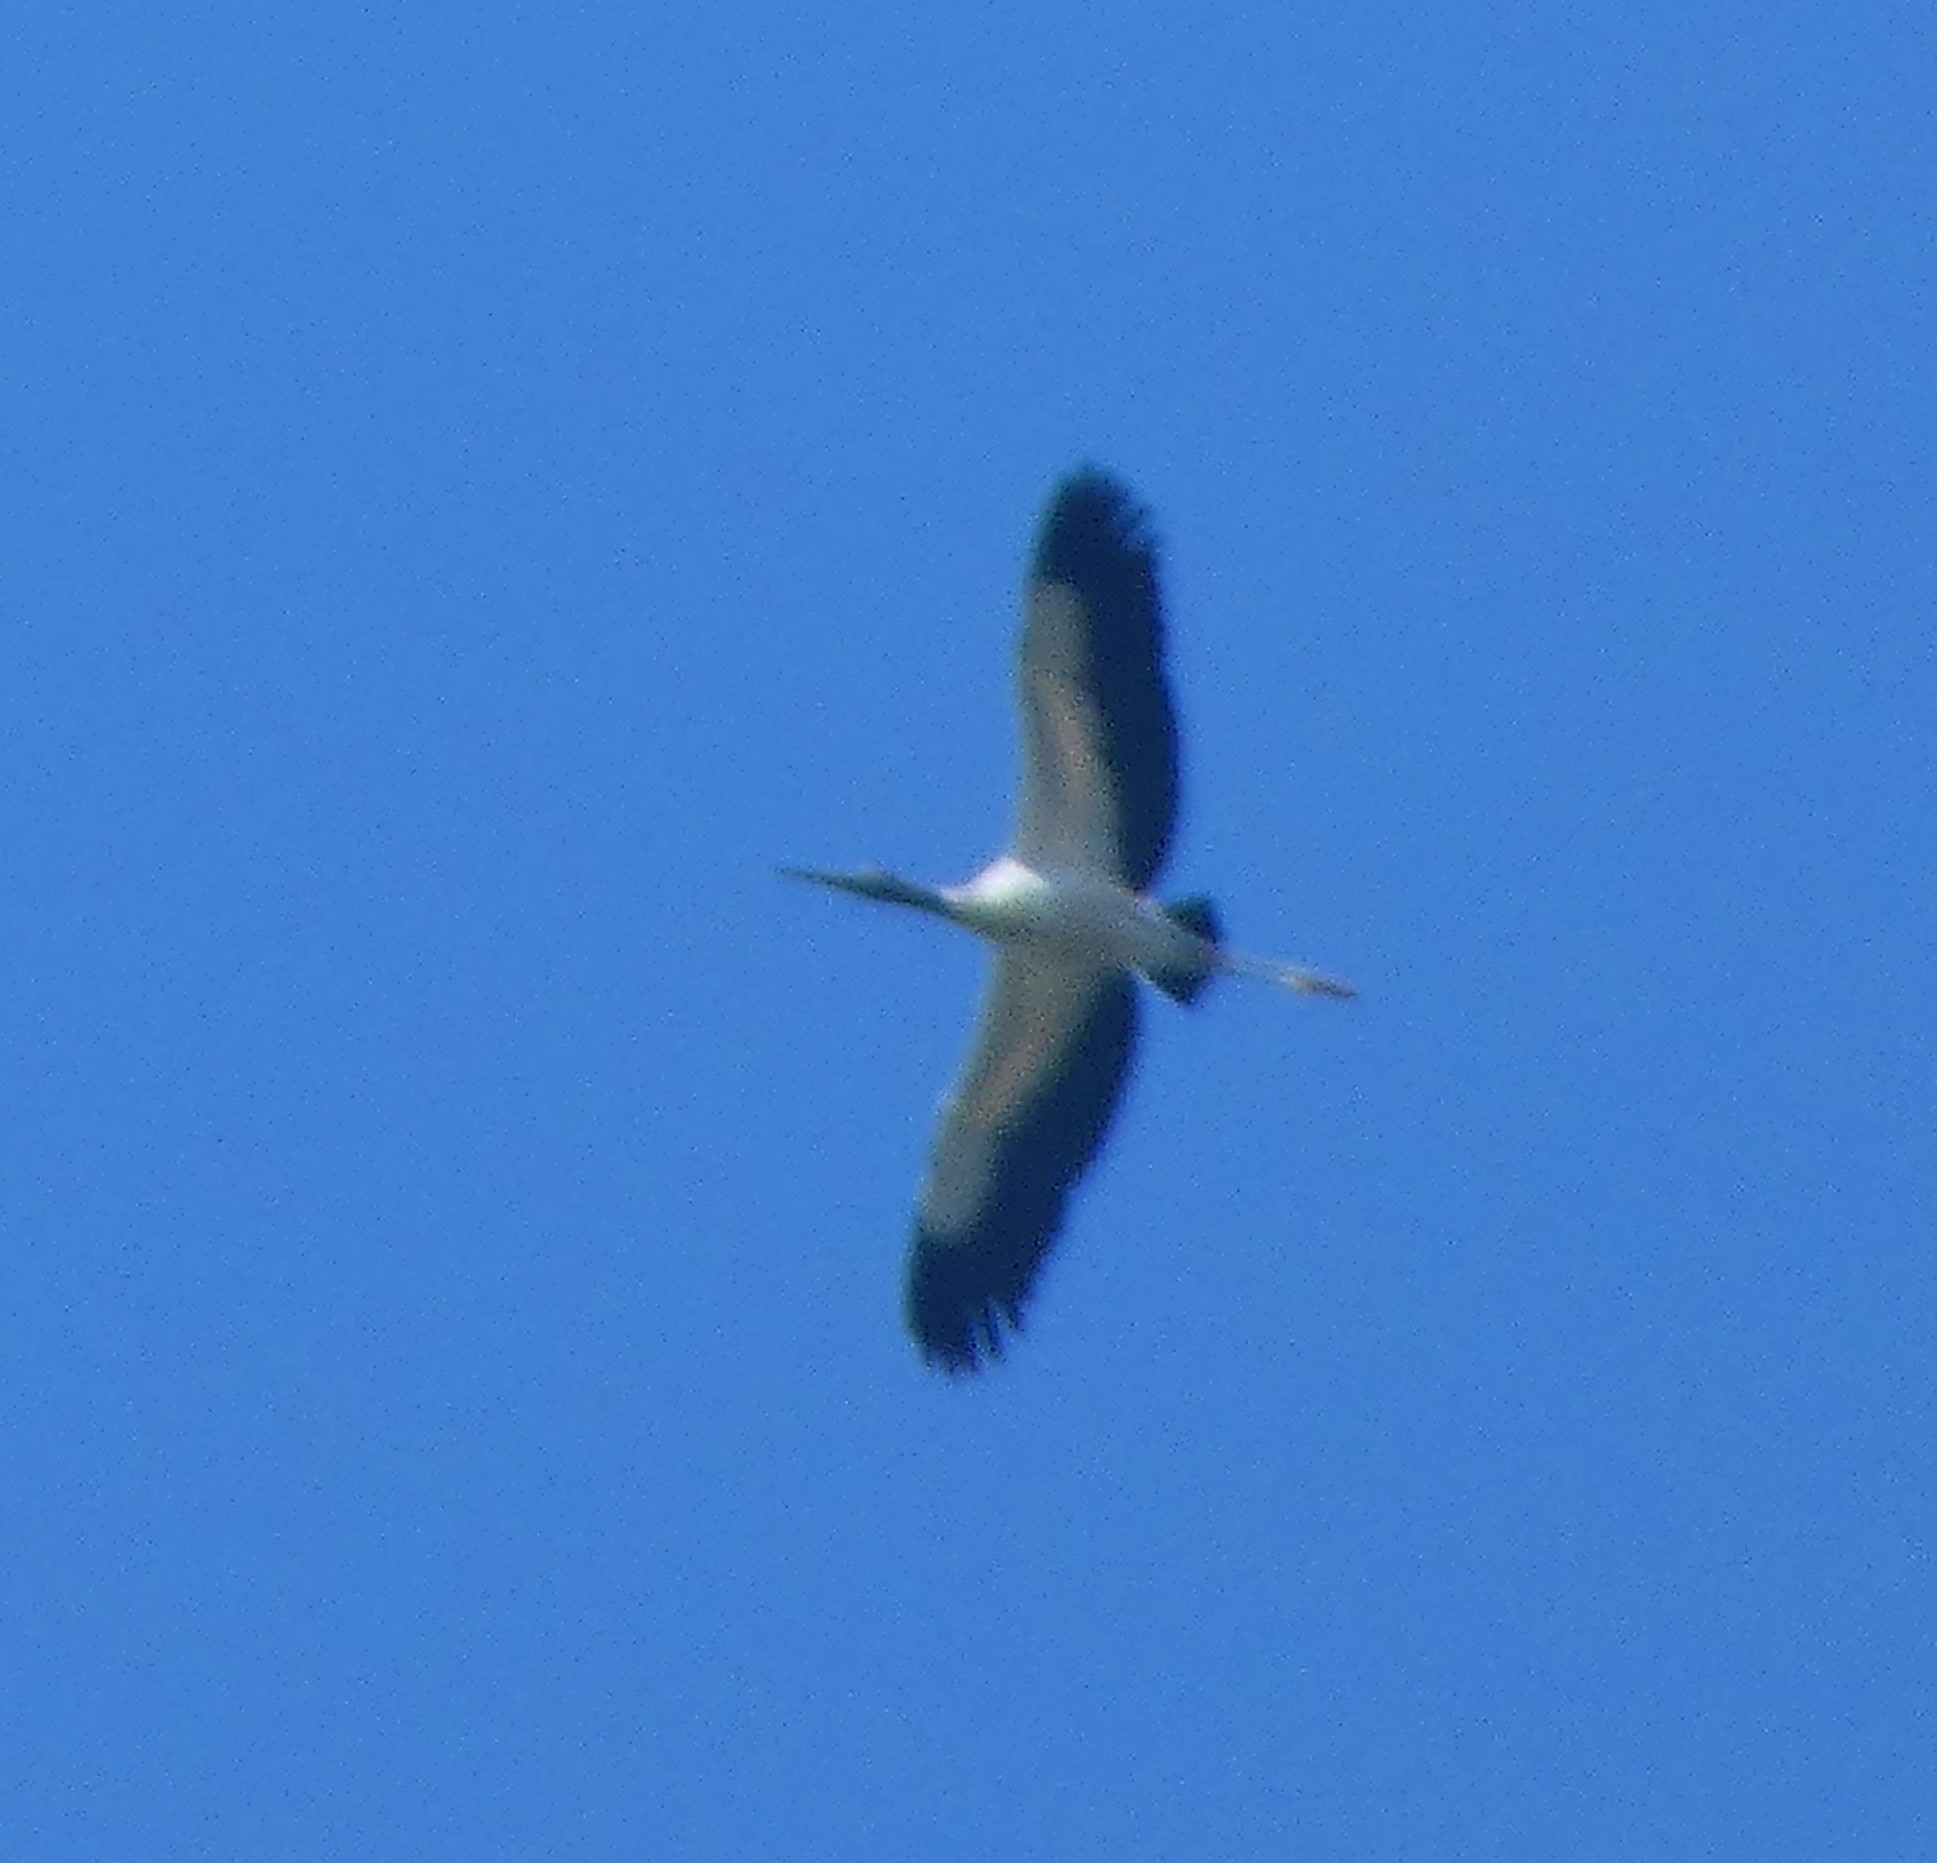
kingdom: Animalia
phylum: Chordata
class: Aves
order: Ciconiiformes
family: Ciconiidae
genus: Mycteria
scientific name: Mycteria americana
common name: Wood stork
